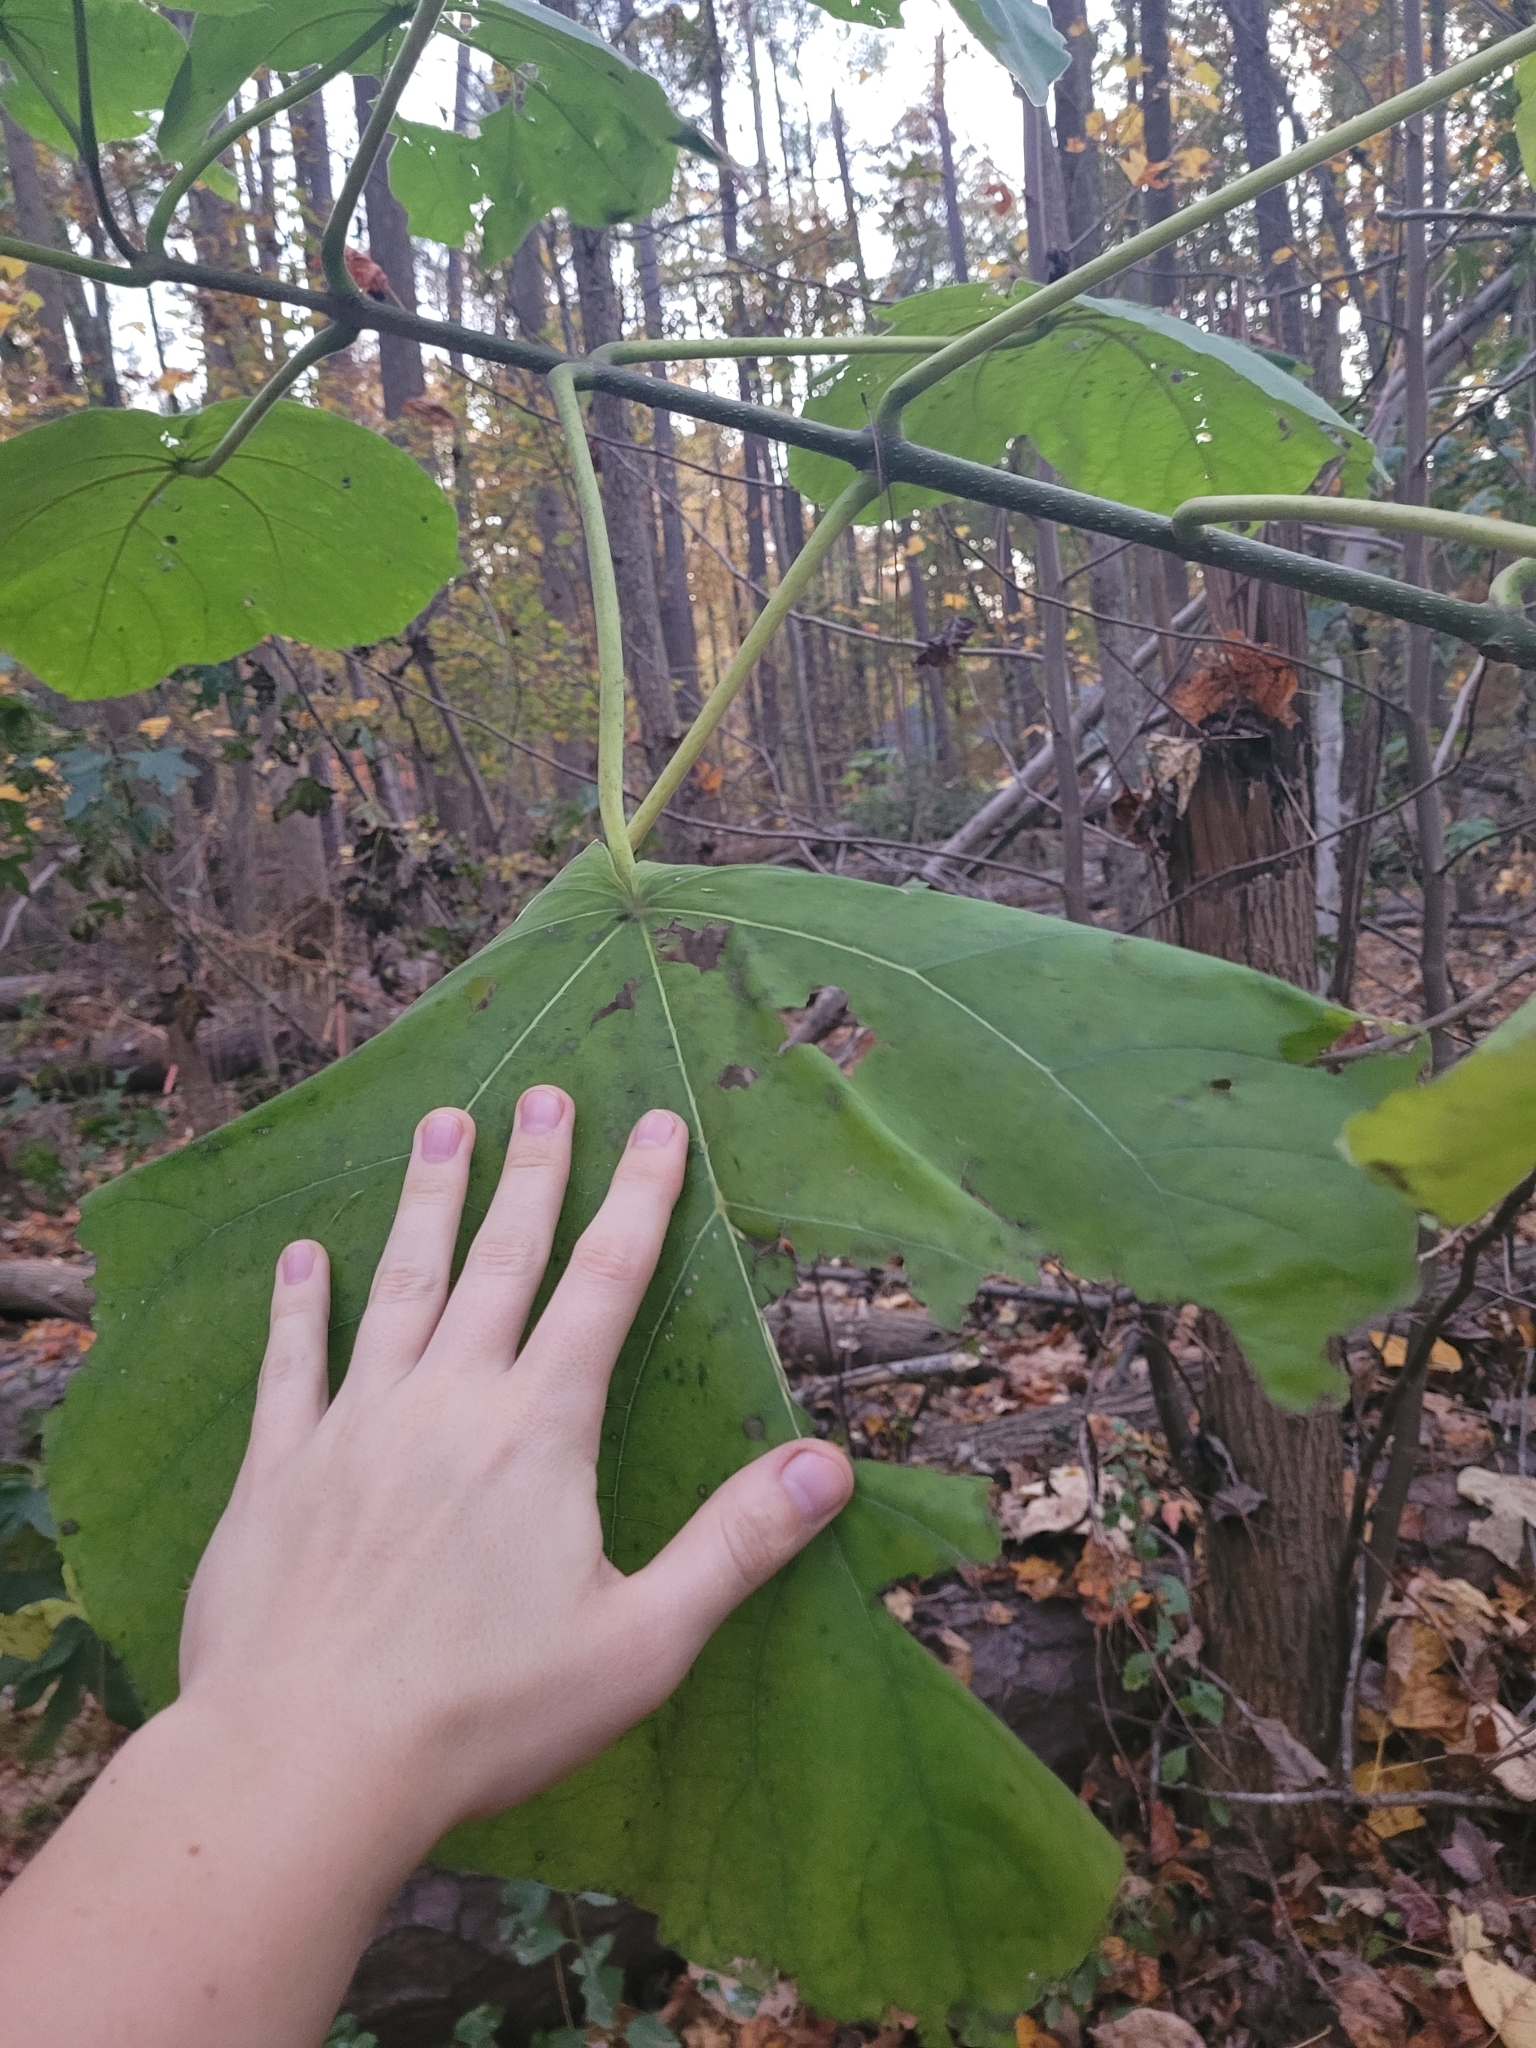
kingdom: Plantae
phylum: Tracheophyta
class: Magnoliopsida
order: Lamiales
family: Paulowniaceae
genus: Paulownia
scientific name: Paulownia tomentosa
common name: Foxglove-tree
